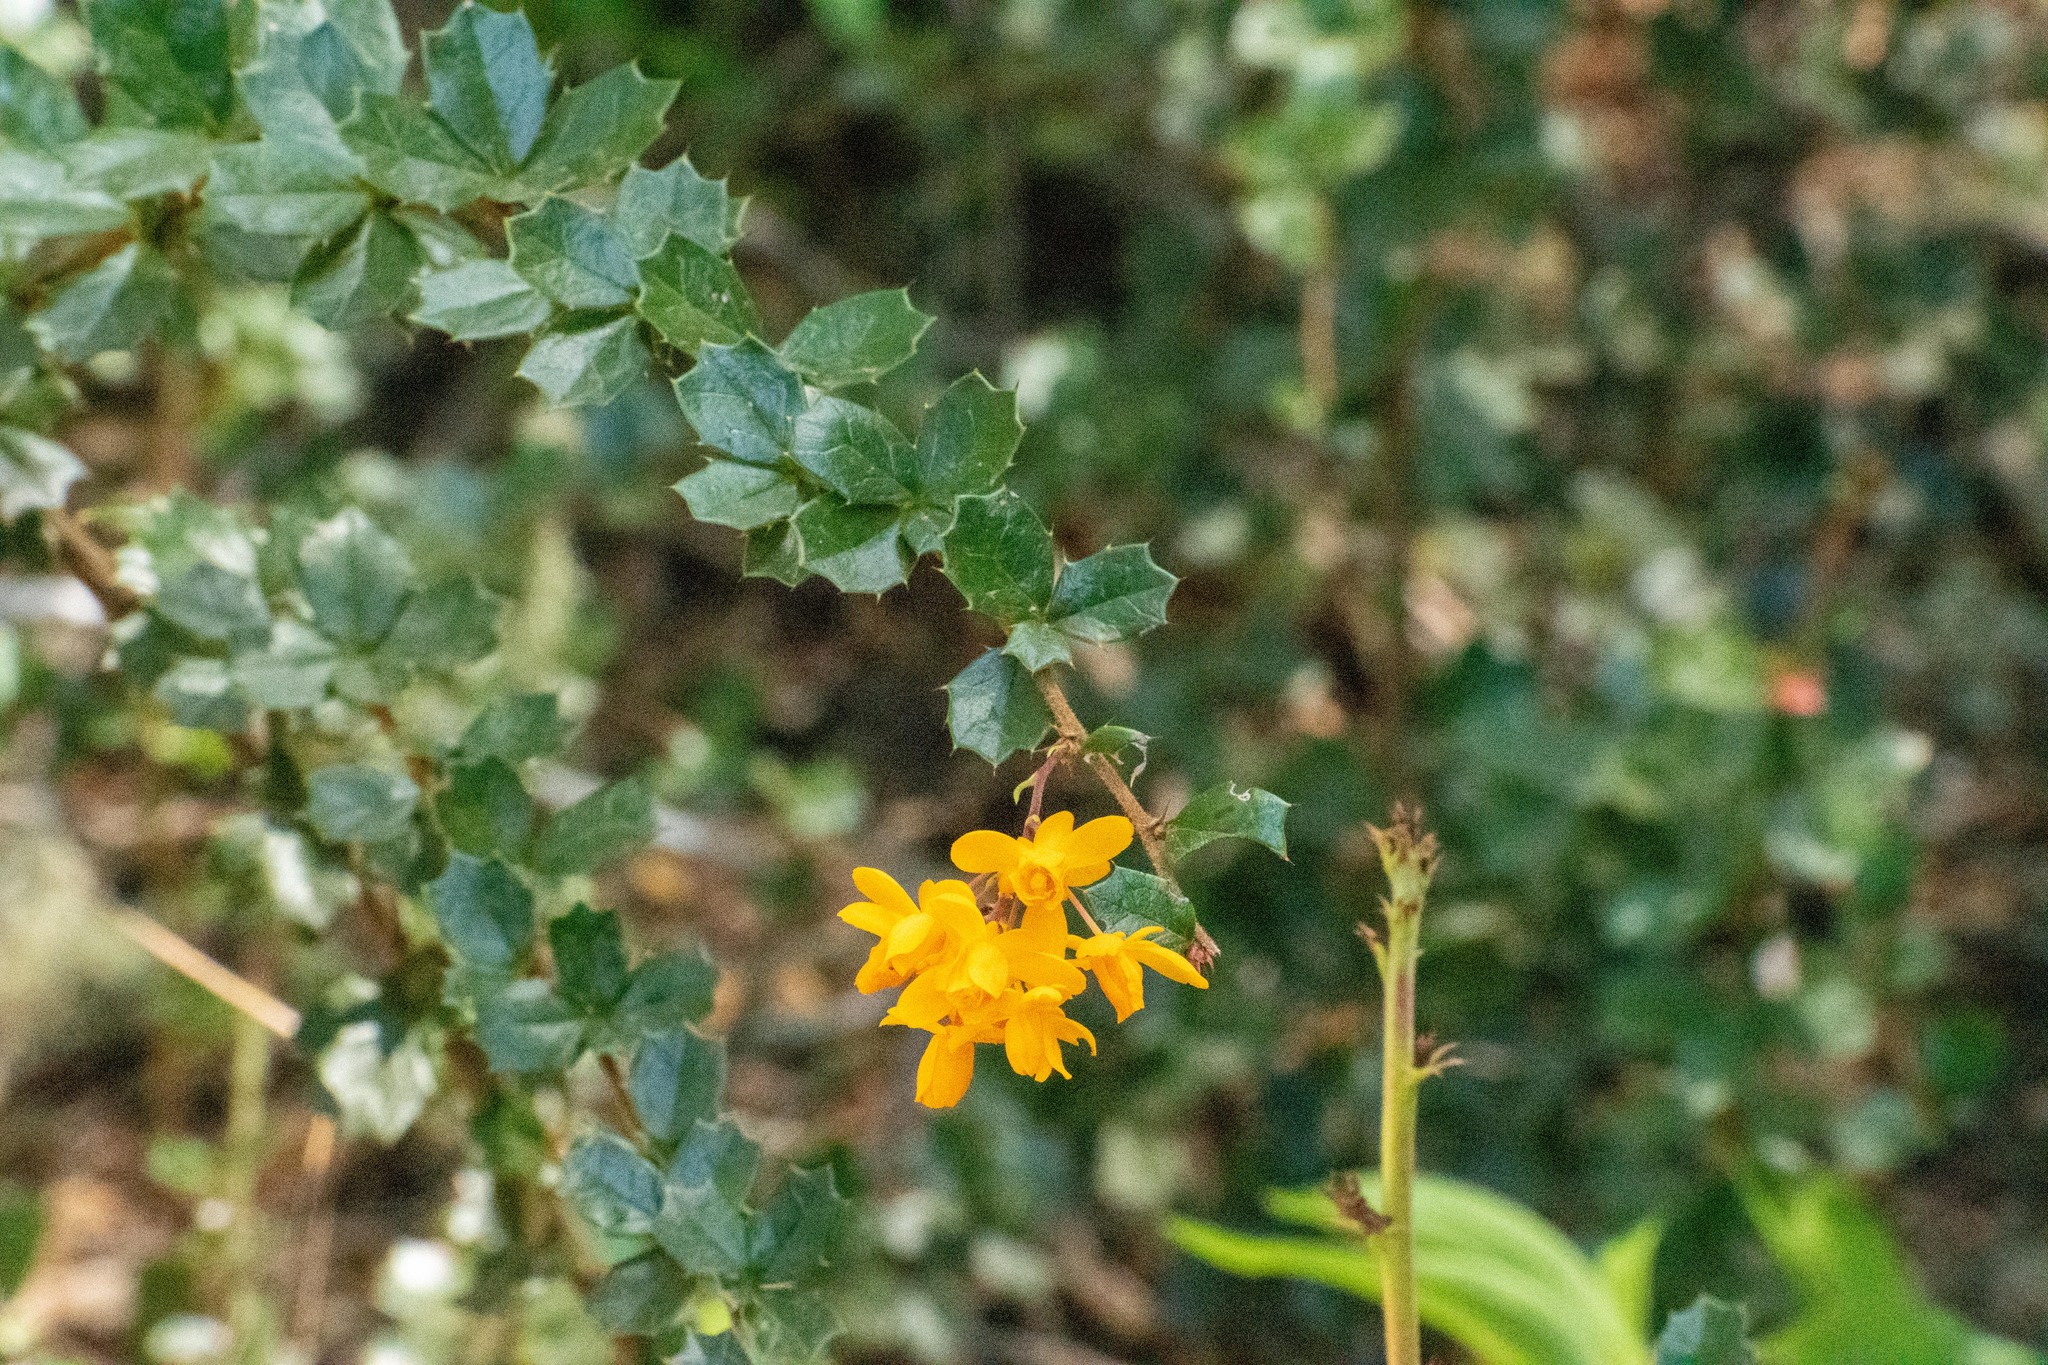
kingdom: Plantae
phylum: Tracheophyta
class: Magnoliopsida
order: Ranunculales
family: Berberidaceae
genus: Berberis
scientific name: Berberis darwinii
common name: Darwin's barberry
